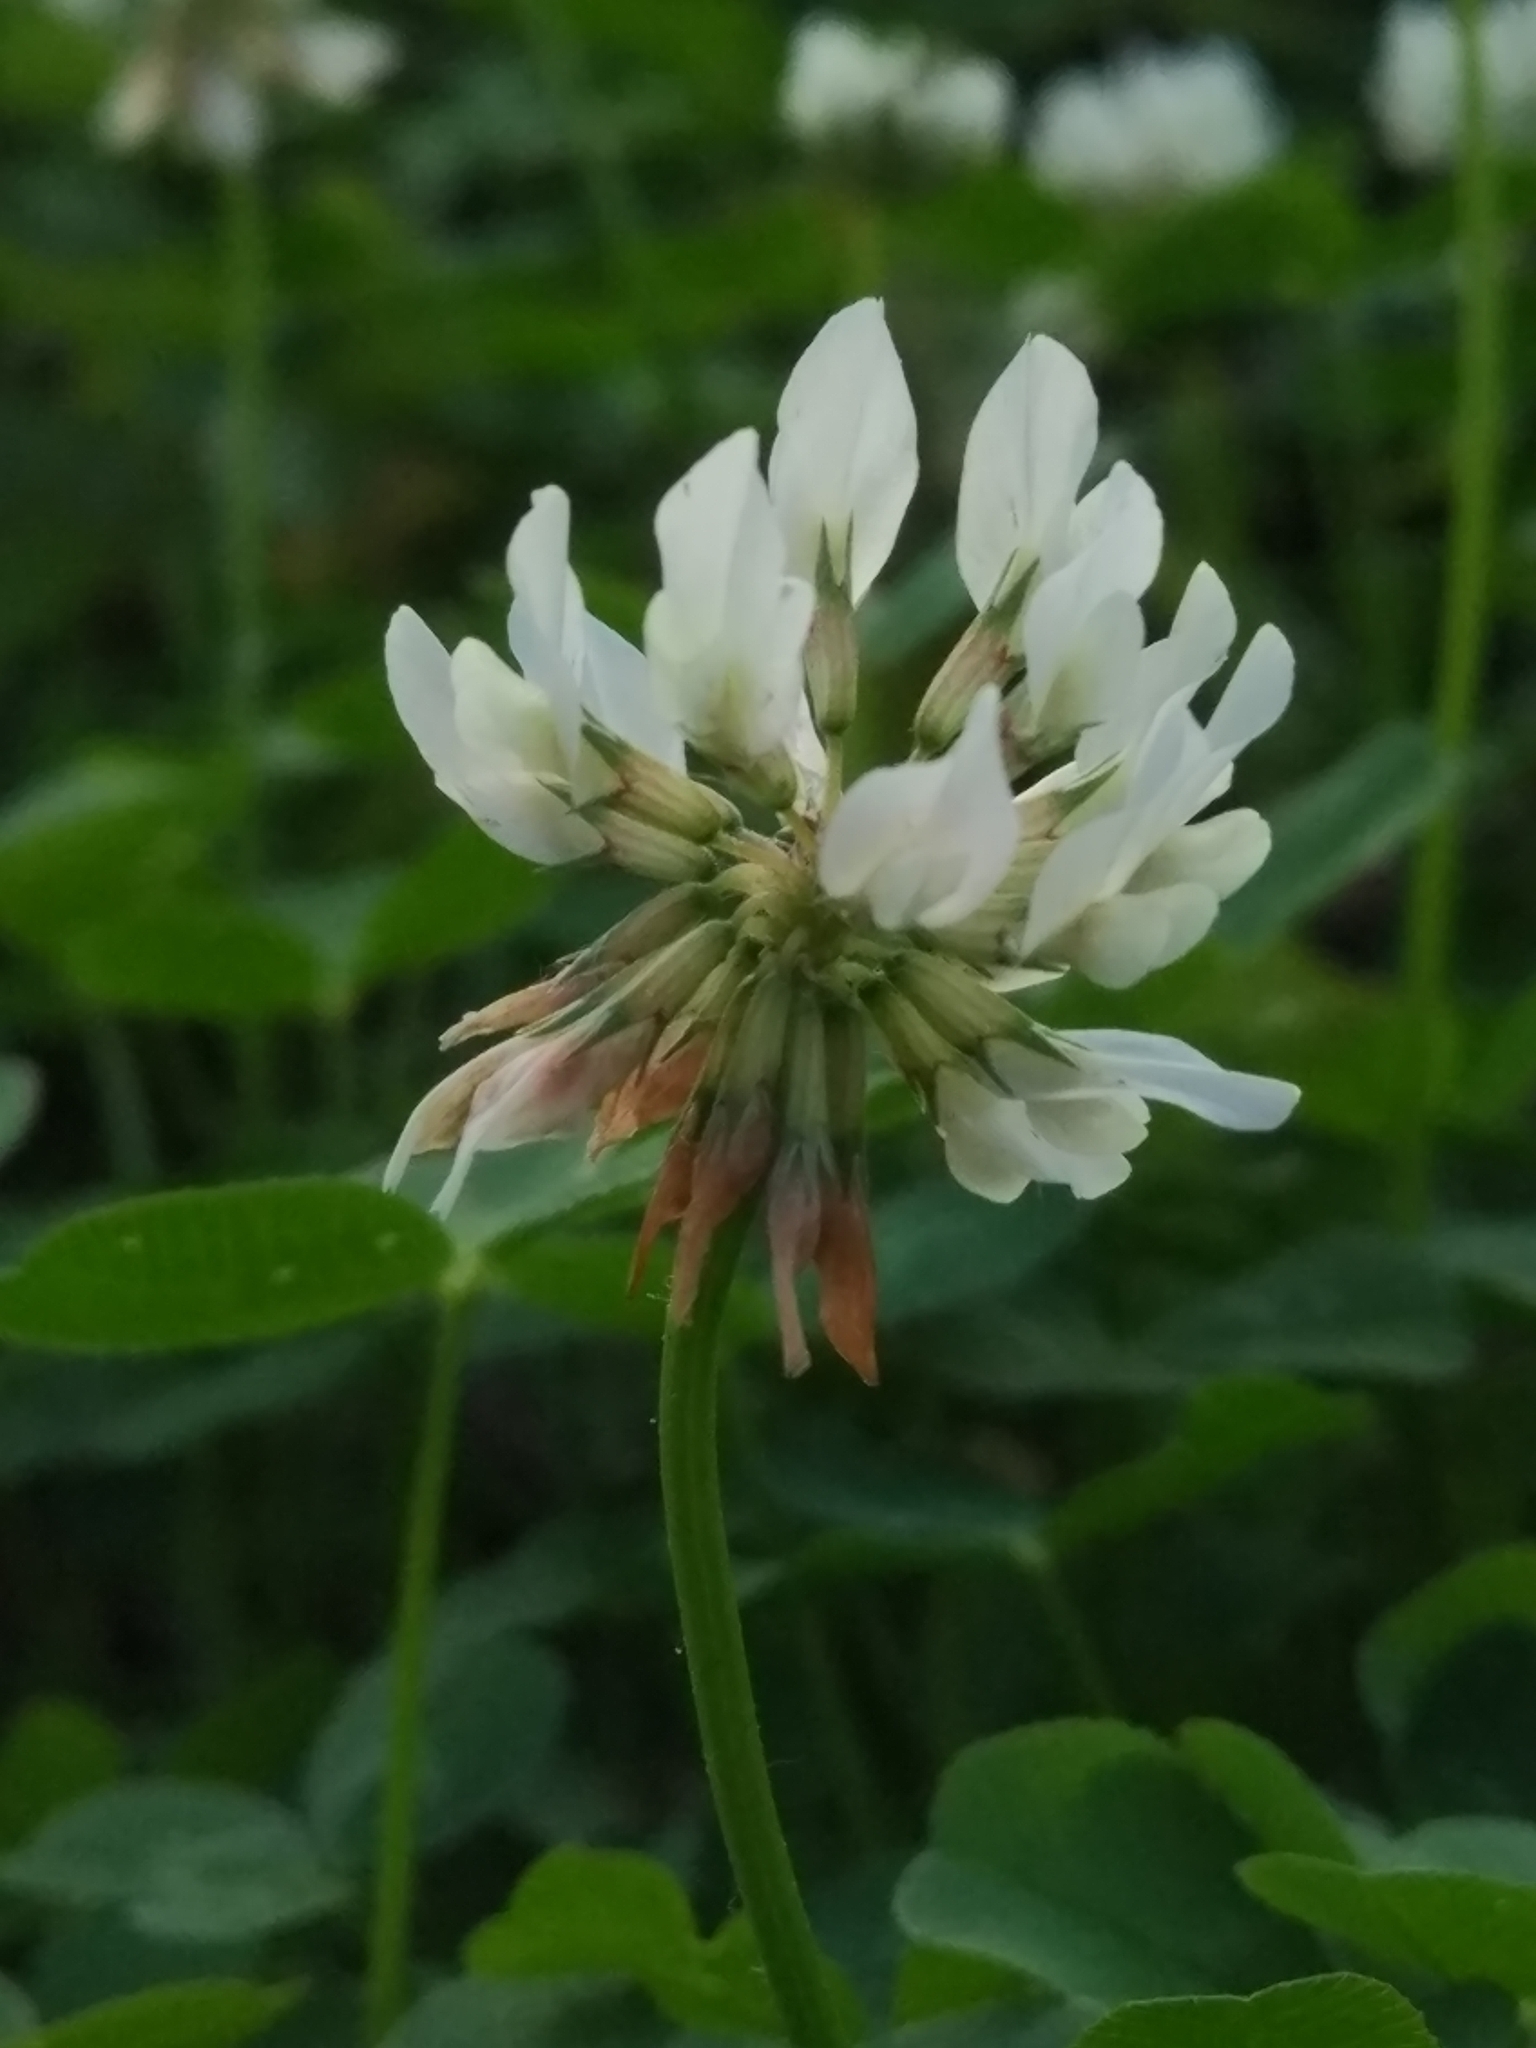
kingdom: Plantae
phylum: Tracheophyta
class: Magnoliopsida
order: Fabales
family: Fabaceae
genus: Trifolium
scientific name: Trifolium repens
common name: White clover
